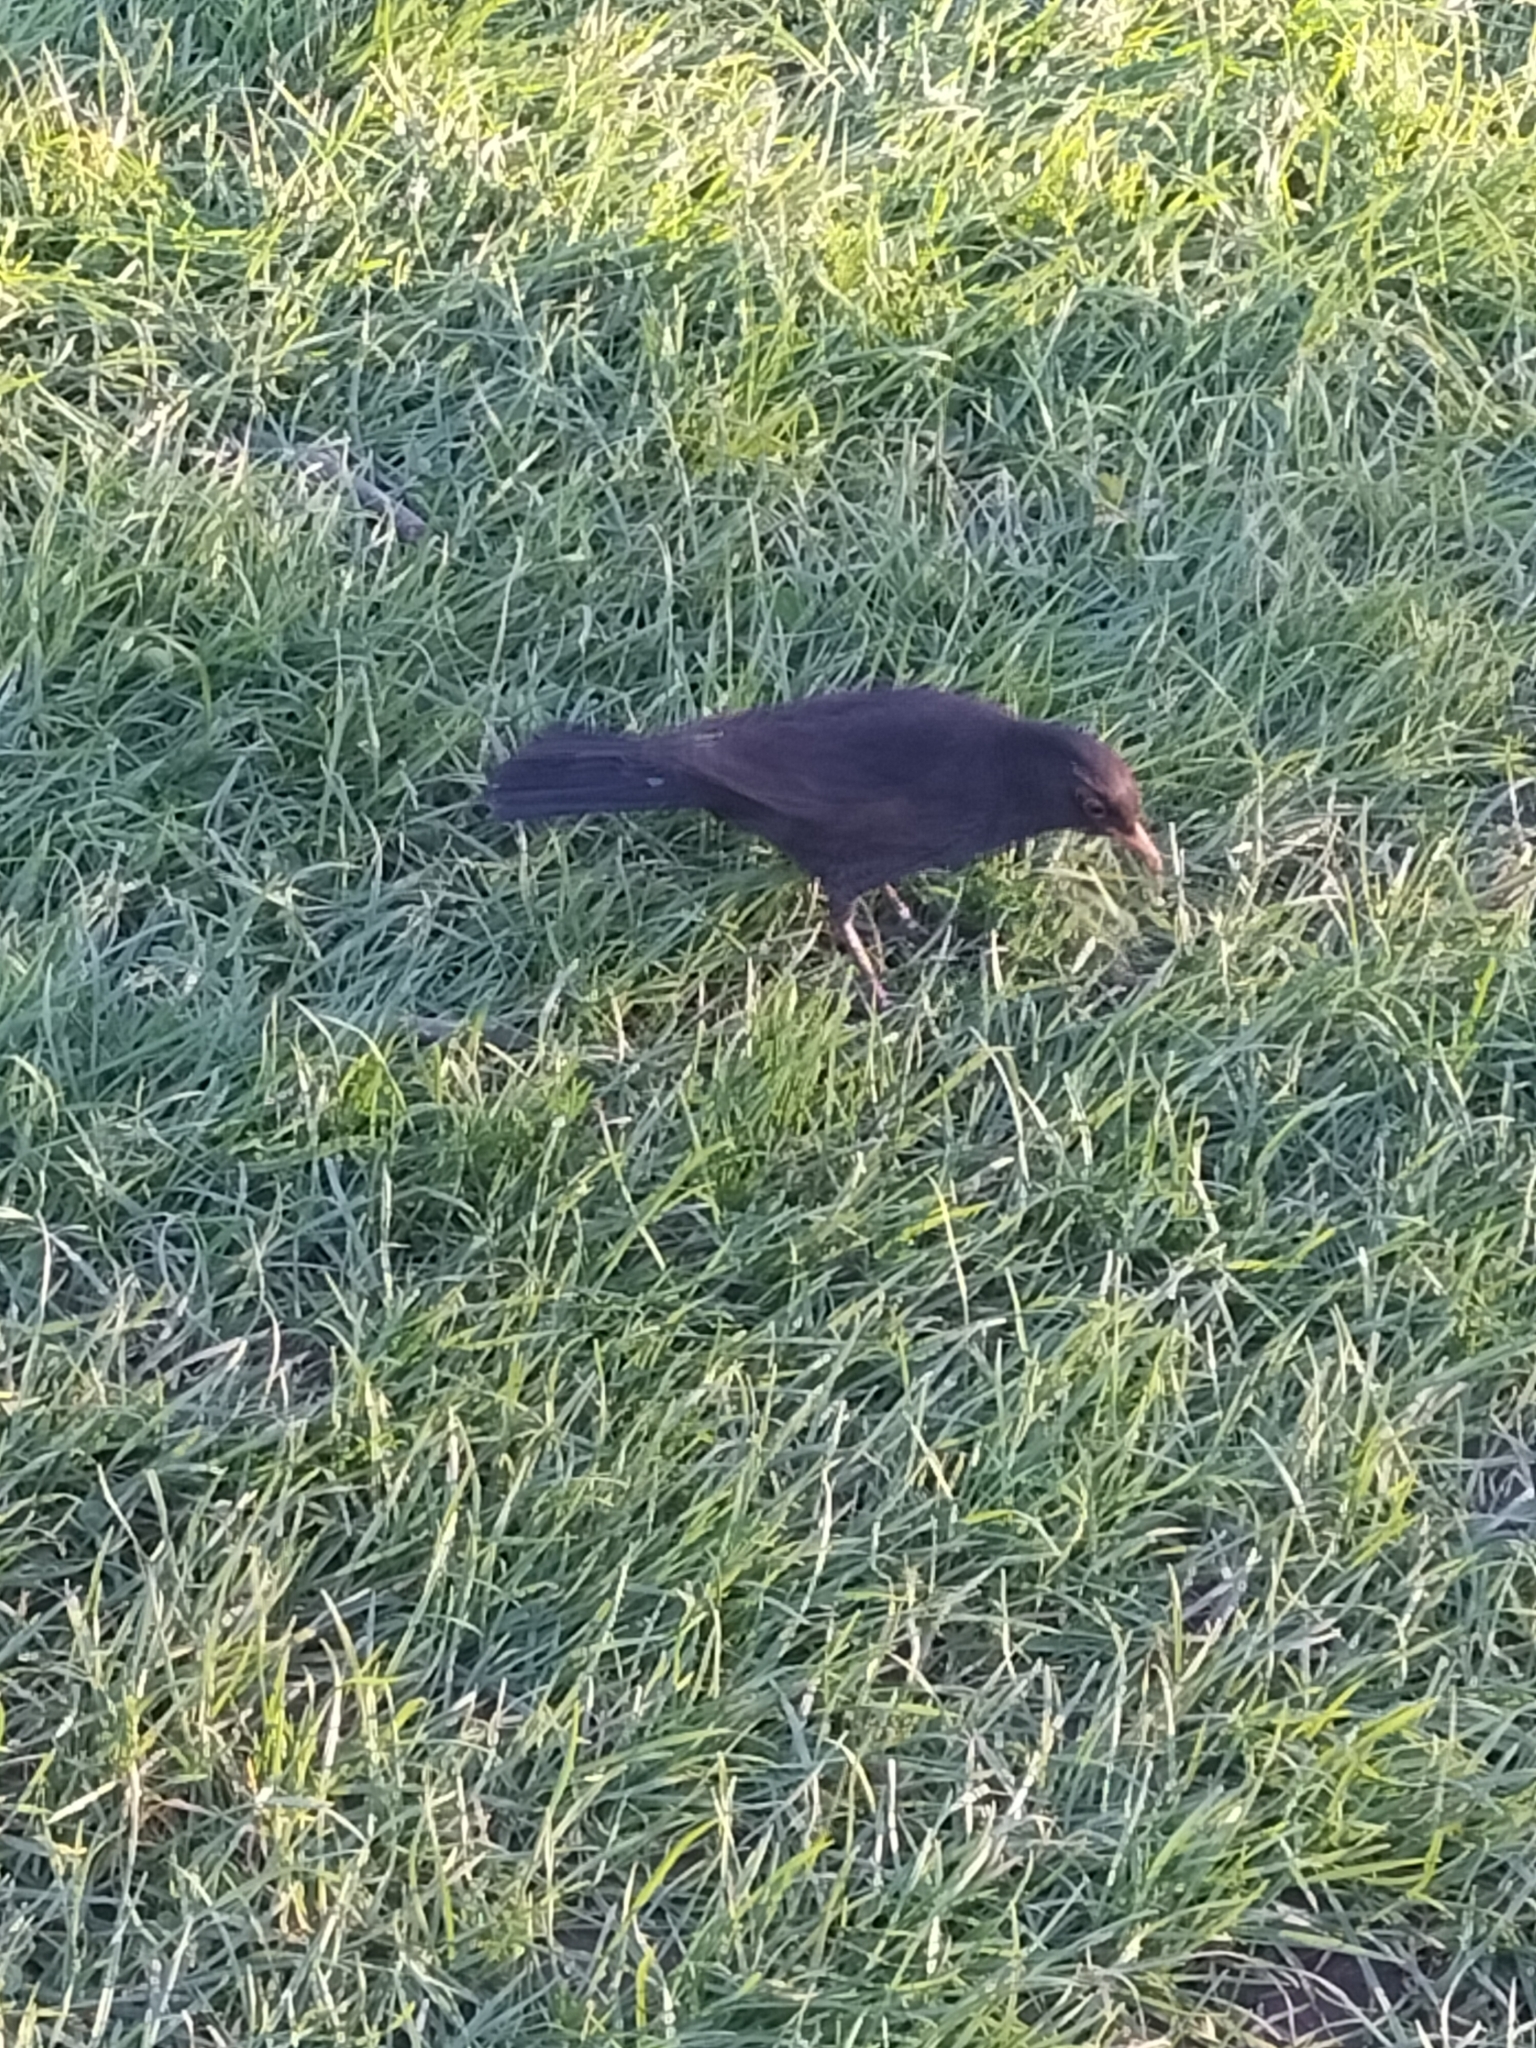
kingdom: Animalia
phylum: Chordata
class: Aves
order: Passeriformes
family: Turdidae
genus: Turdus
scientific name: Turdus merula
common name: Common blackbird
